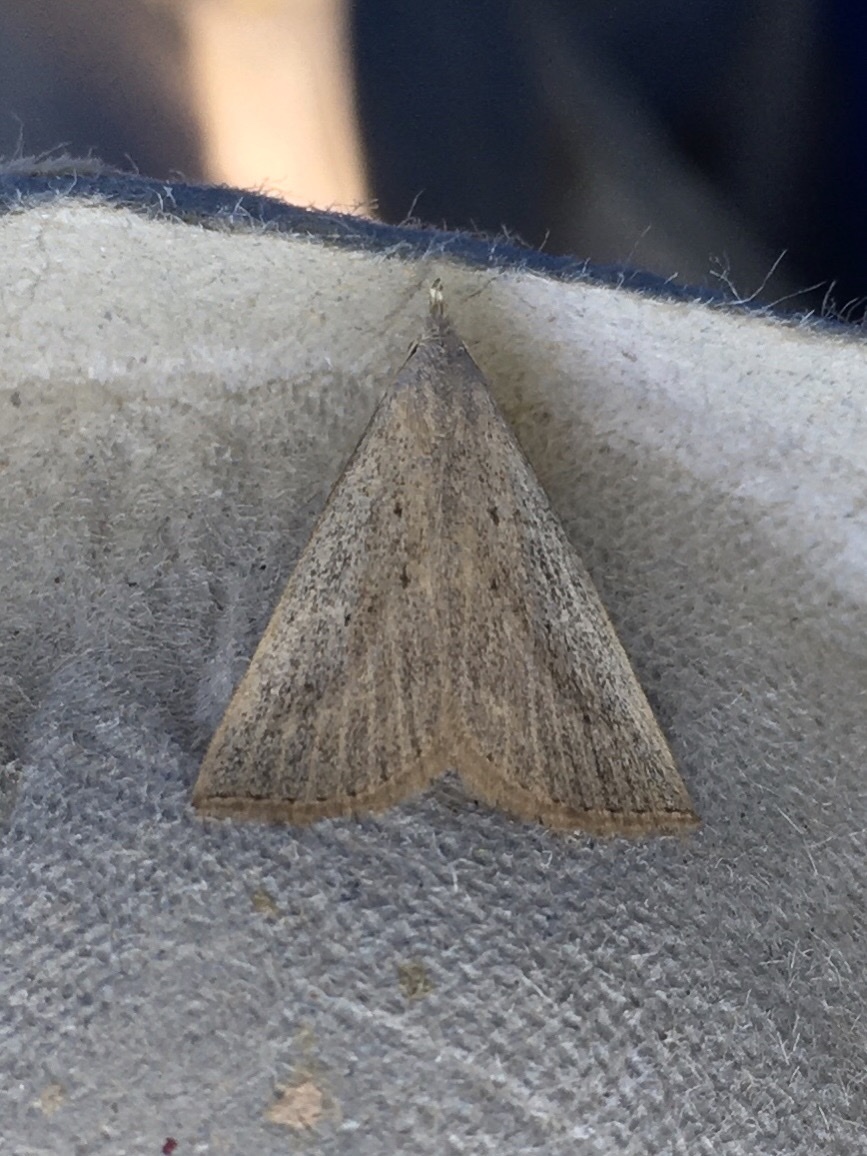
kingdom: Animalia
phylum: Arthropoda
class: Insecta
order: Lepidoptera
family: Erebidae
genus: Macrochilo
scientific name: Macrochilo louisiana
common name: Louisiana macrochilo
